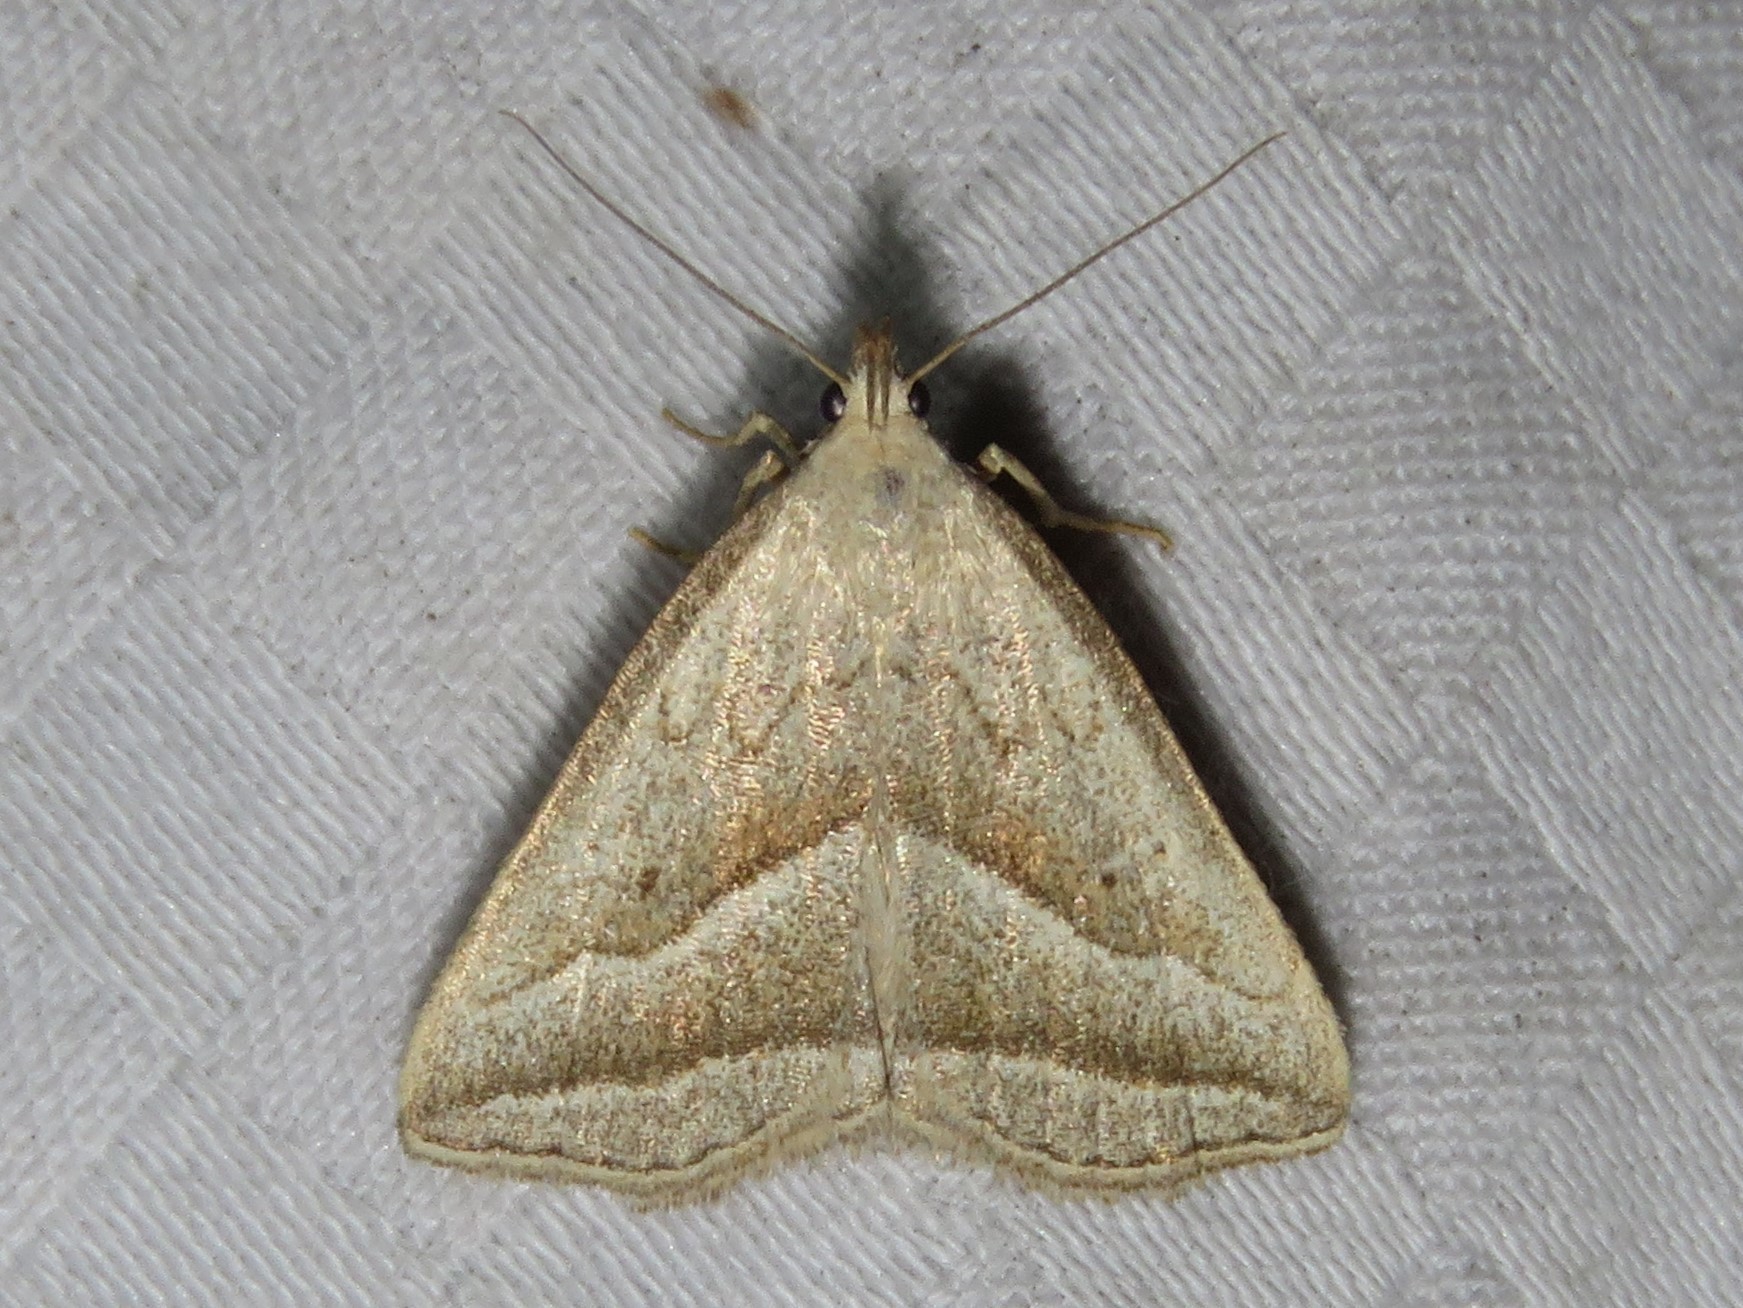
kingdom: Animalia
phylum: Arthropoda
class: Insecta
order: Lepidoptera
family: Erebidae
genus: Macrochilo
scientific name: Macrochilo absorptalis
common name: Slant-lined owlet
